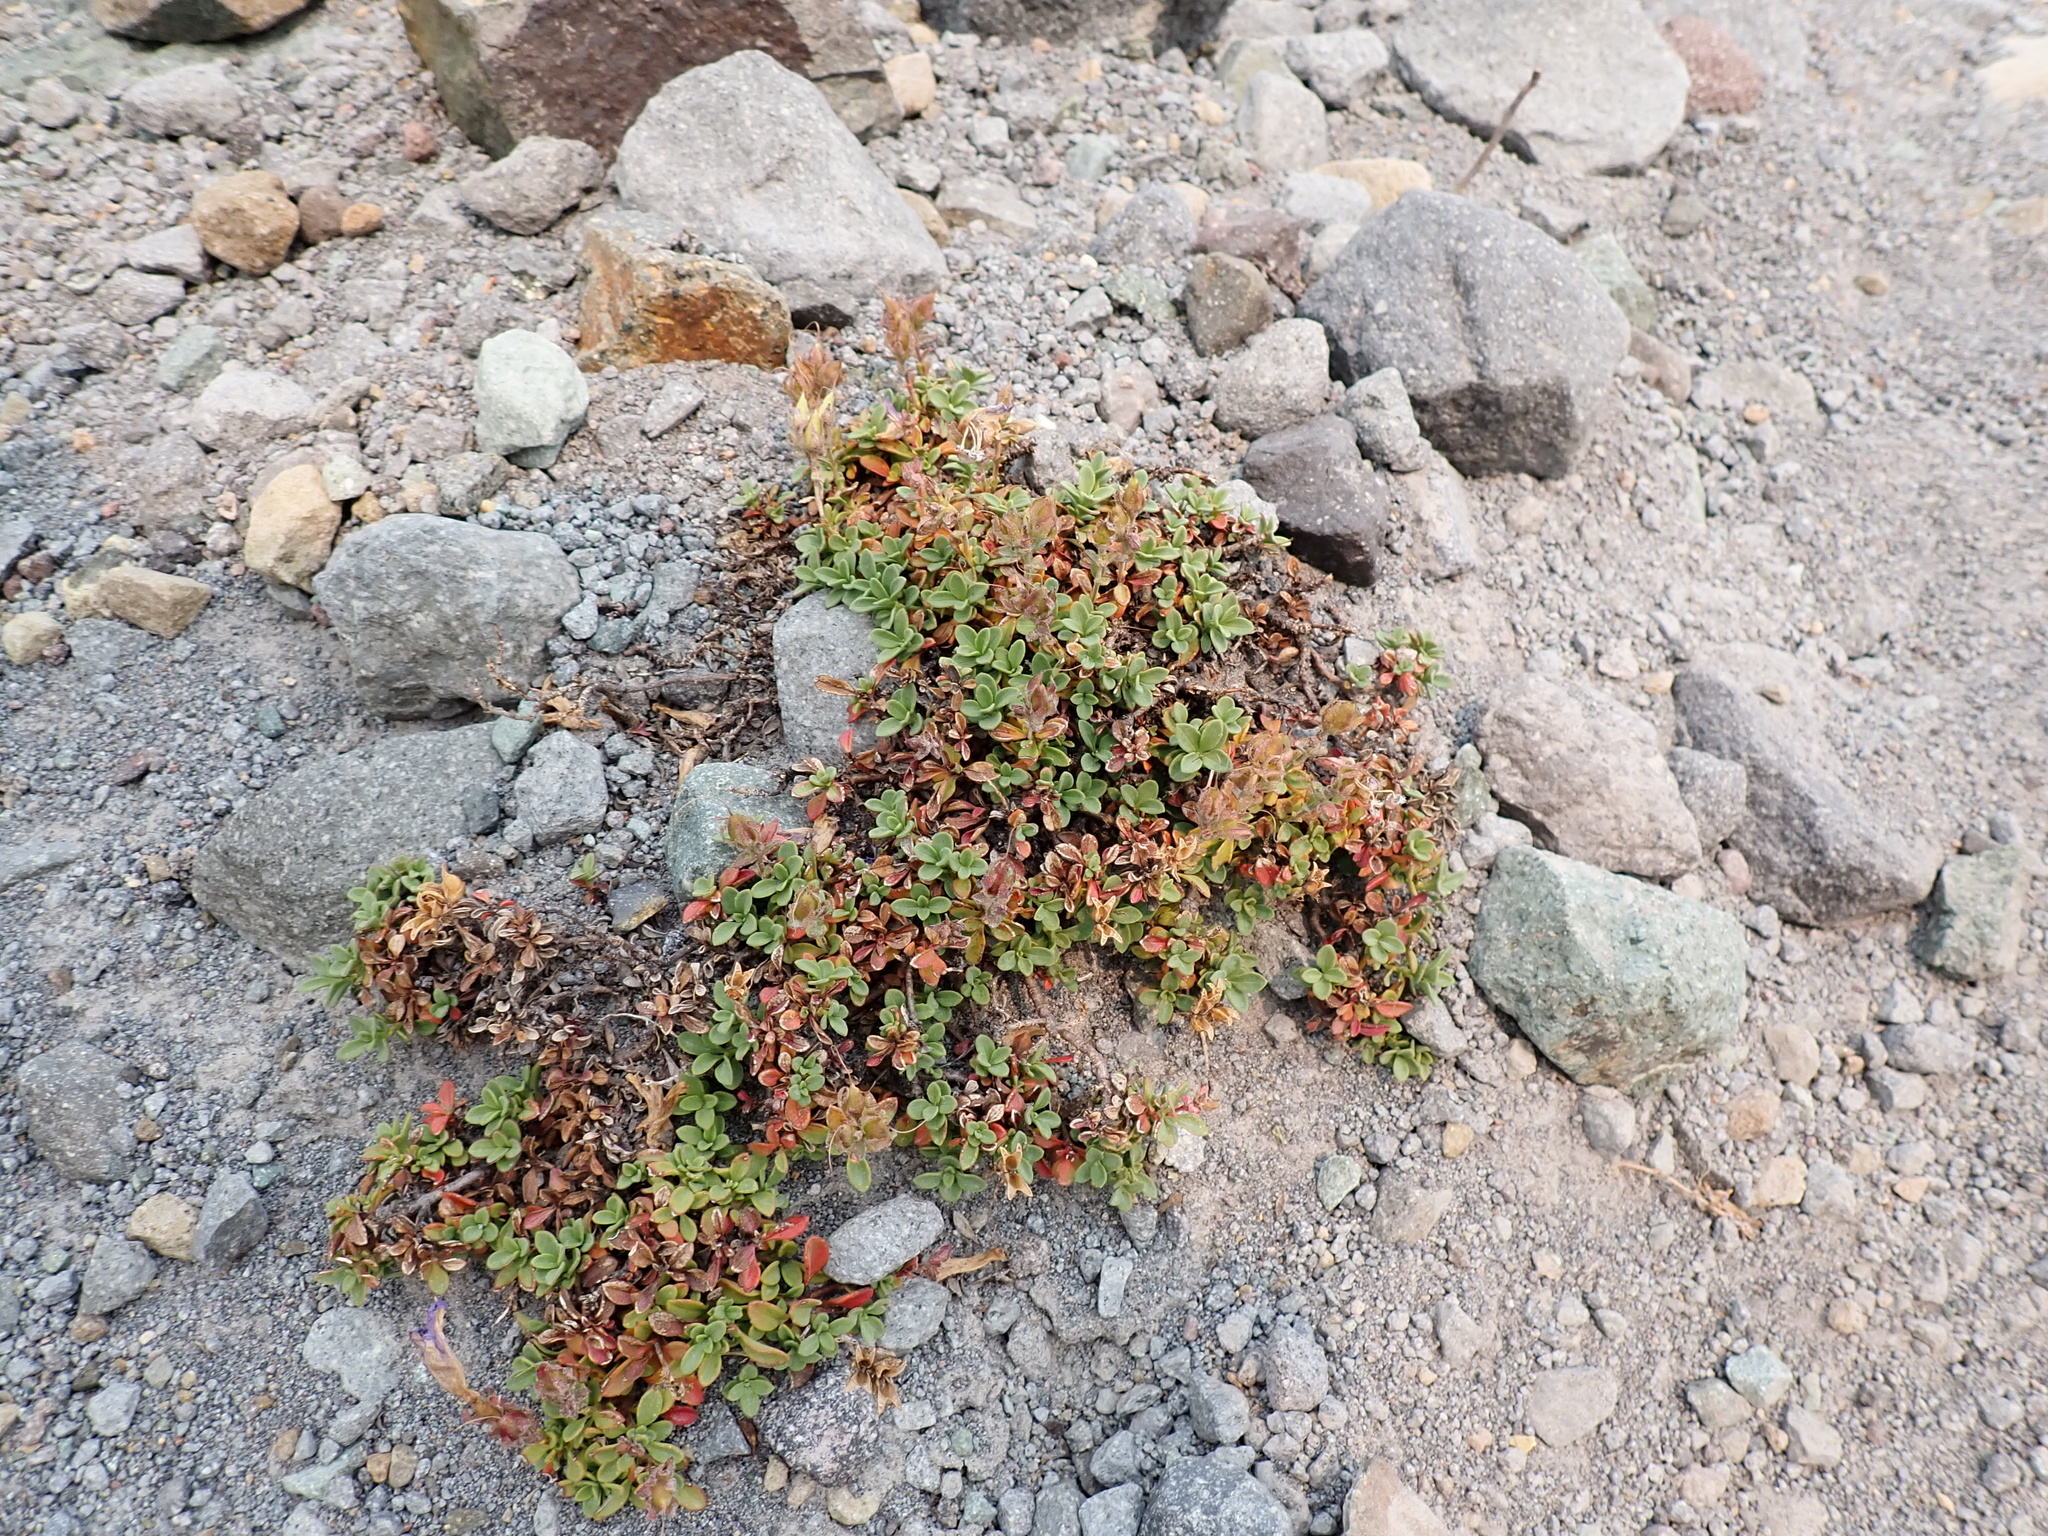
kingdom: Plantae
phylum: Tracheophyta
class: Magnoliopsida
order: Lamiales
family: Plantaginaceae
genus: Penstemon
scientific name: Penstemon davidsonii
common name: Davidson's penstemon
